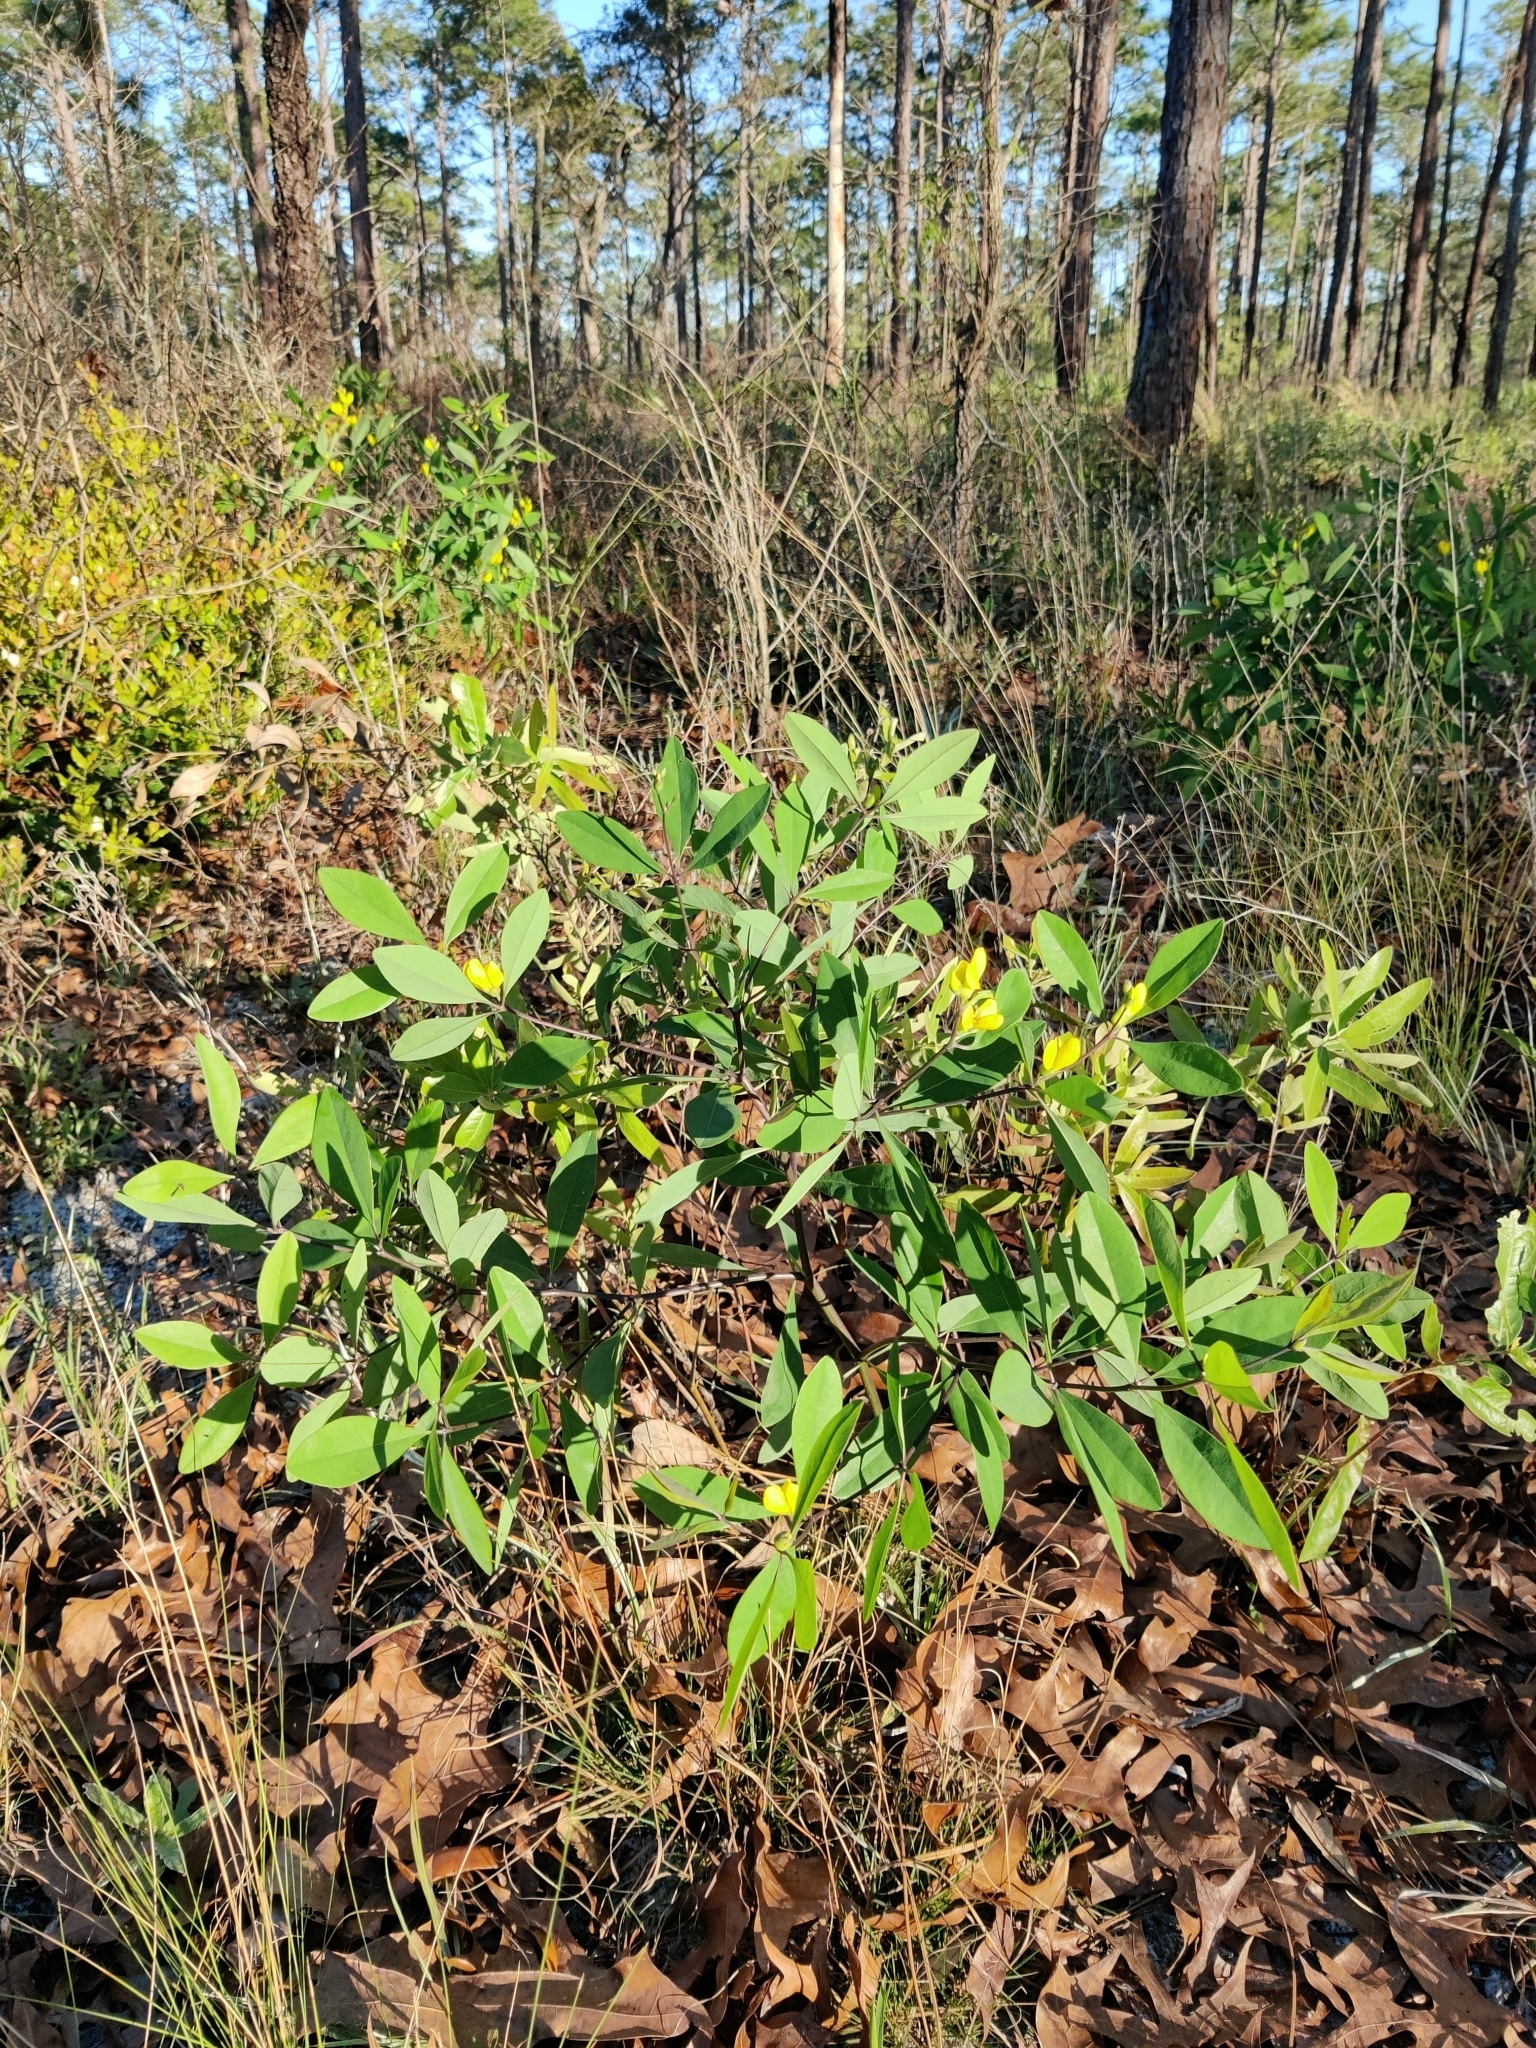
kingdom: Plantae
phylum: Tracheophyta
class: Magnoliopsida
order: Fabales
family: Fabaceae
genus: Baptisia
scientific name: Baptisia lanceolata
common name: Gopherweed
